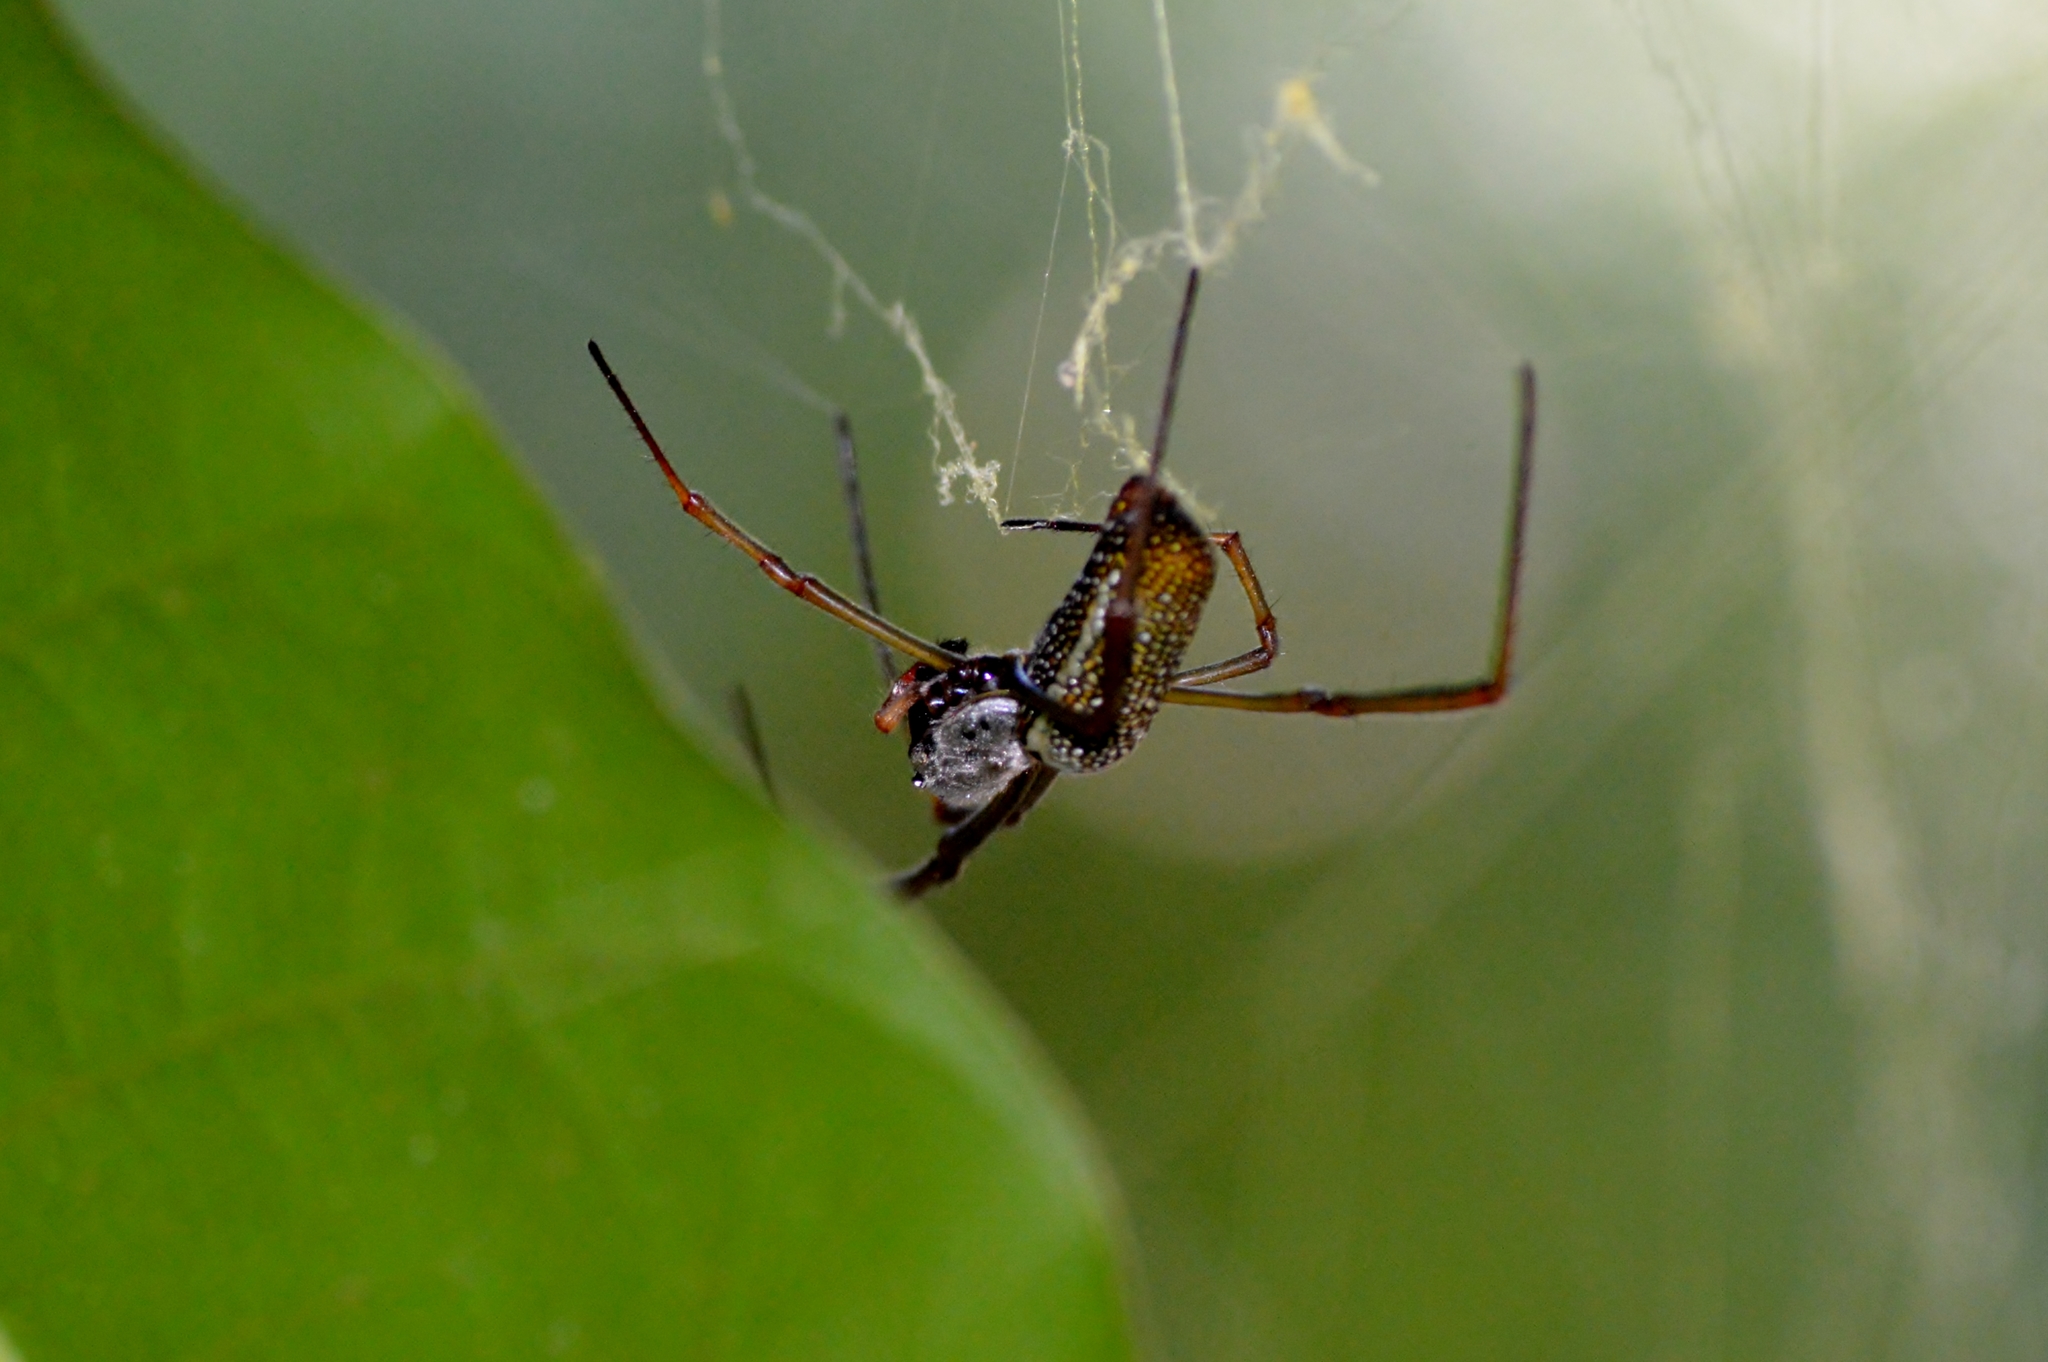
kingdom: Animalia
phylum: Arthropoda
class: Arachnida
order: Araneae
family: Araneidae
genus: Trichonephila
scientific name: Trichonephila clavipes
